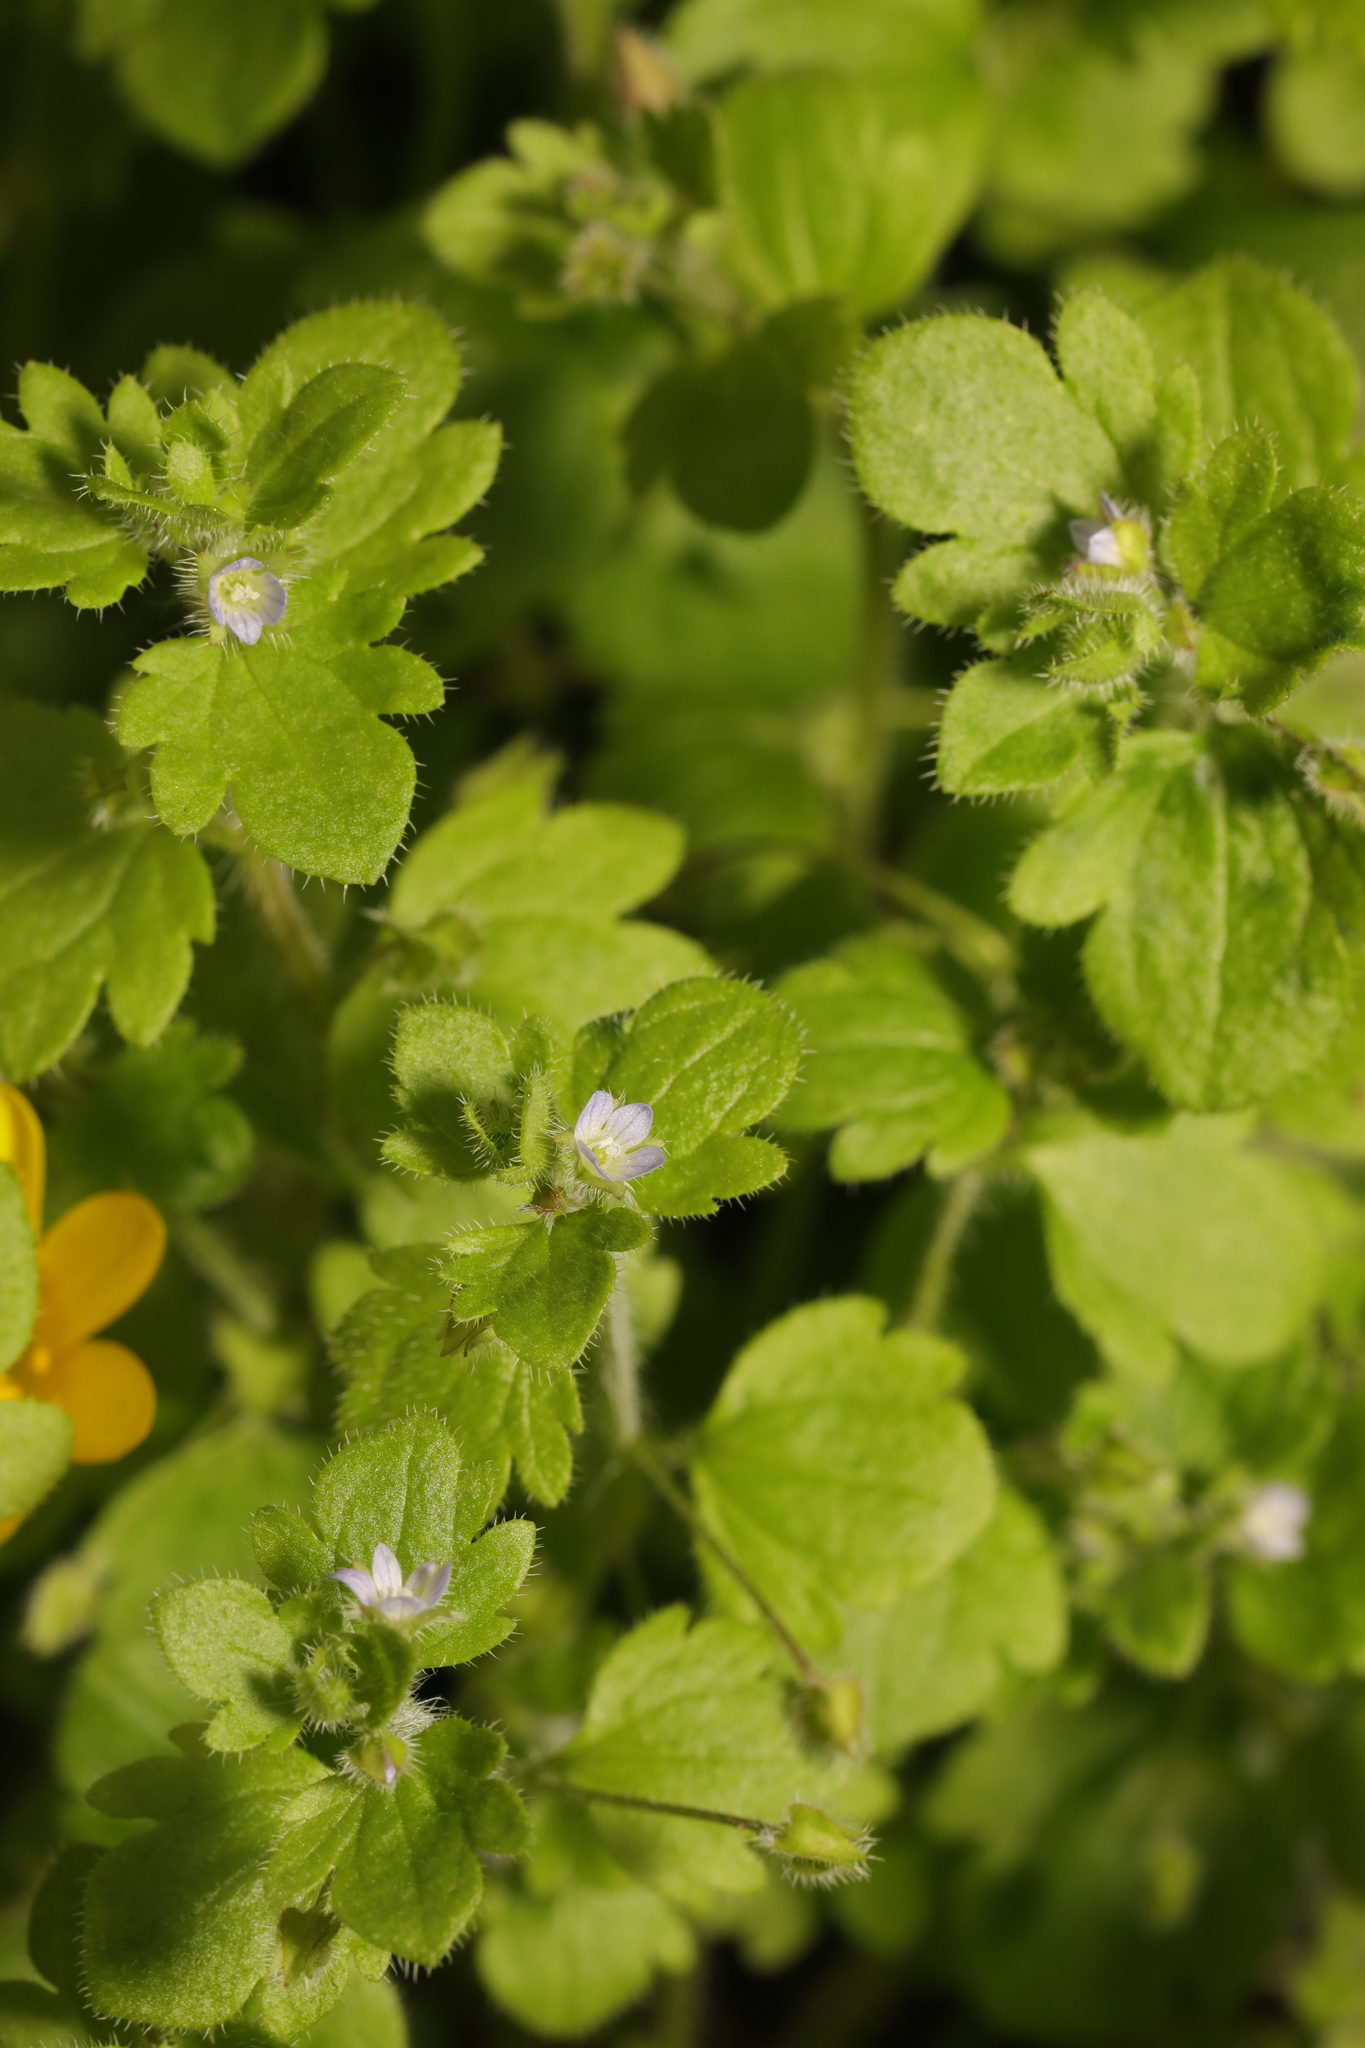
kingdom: Plantae
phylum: Tracheophyta
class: Magnoliopsida
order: Lamiales
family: Plantaginaceae
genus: Veronica
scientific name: Veronica sublobata
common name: False ivy-leaved speedwell
